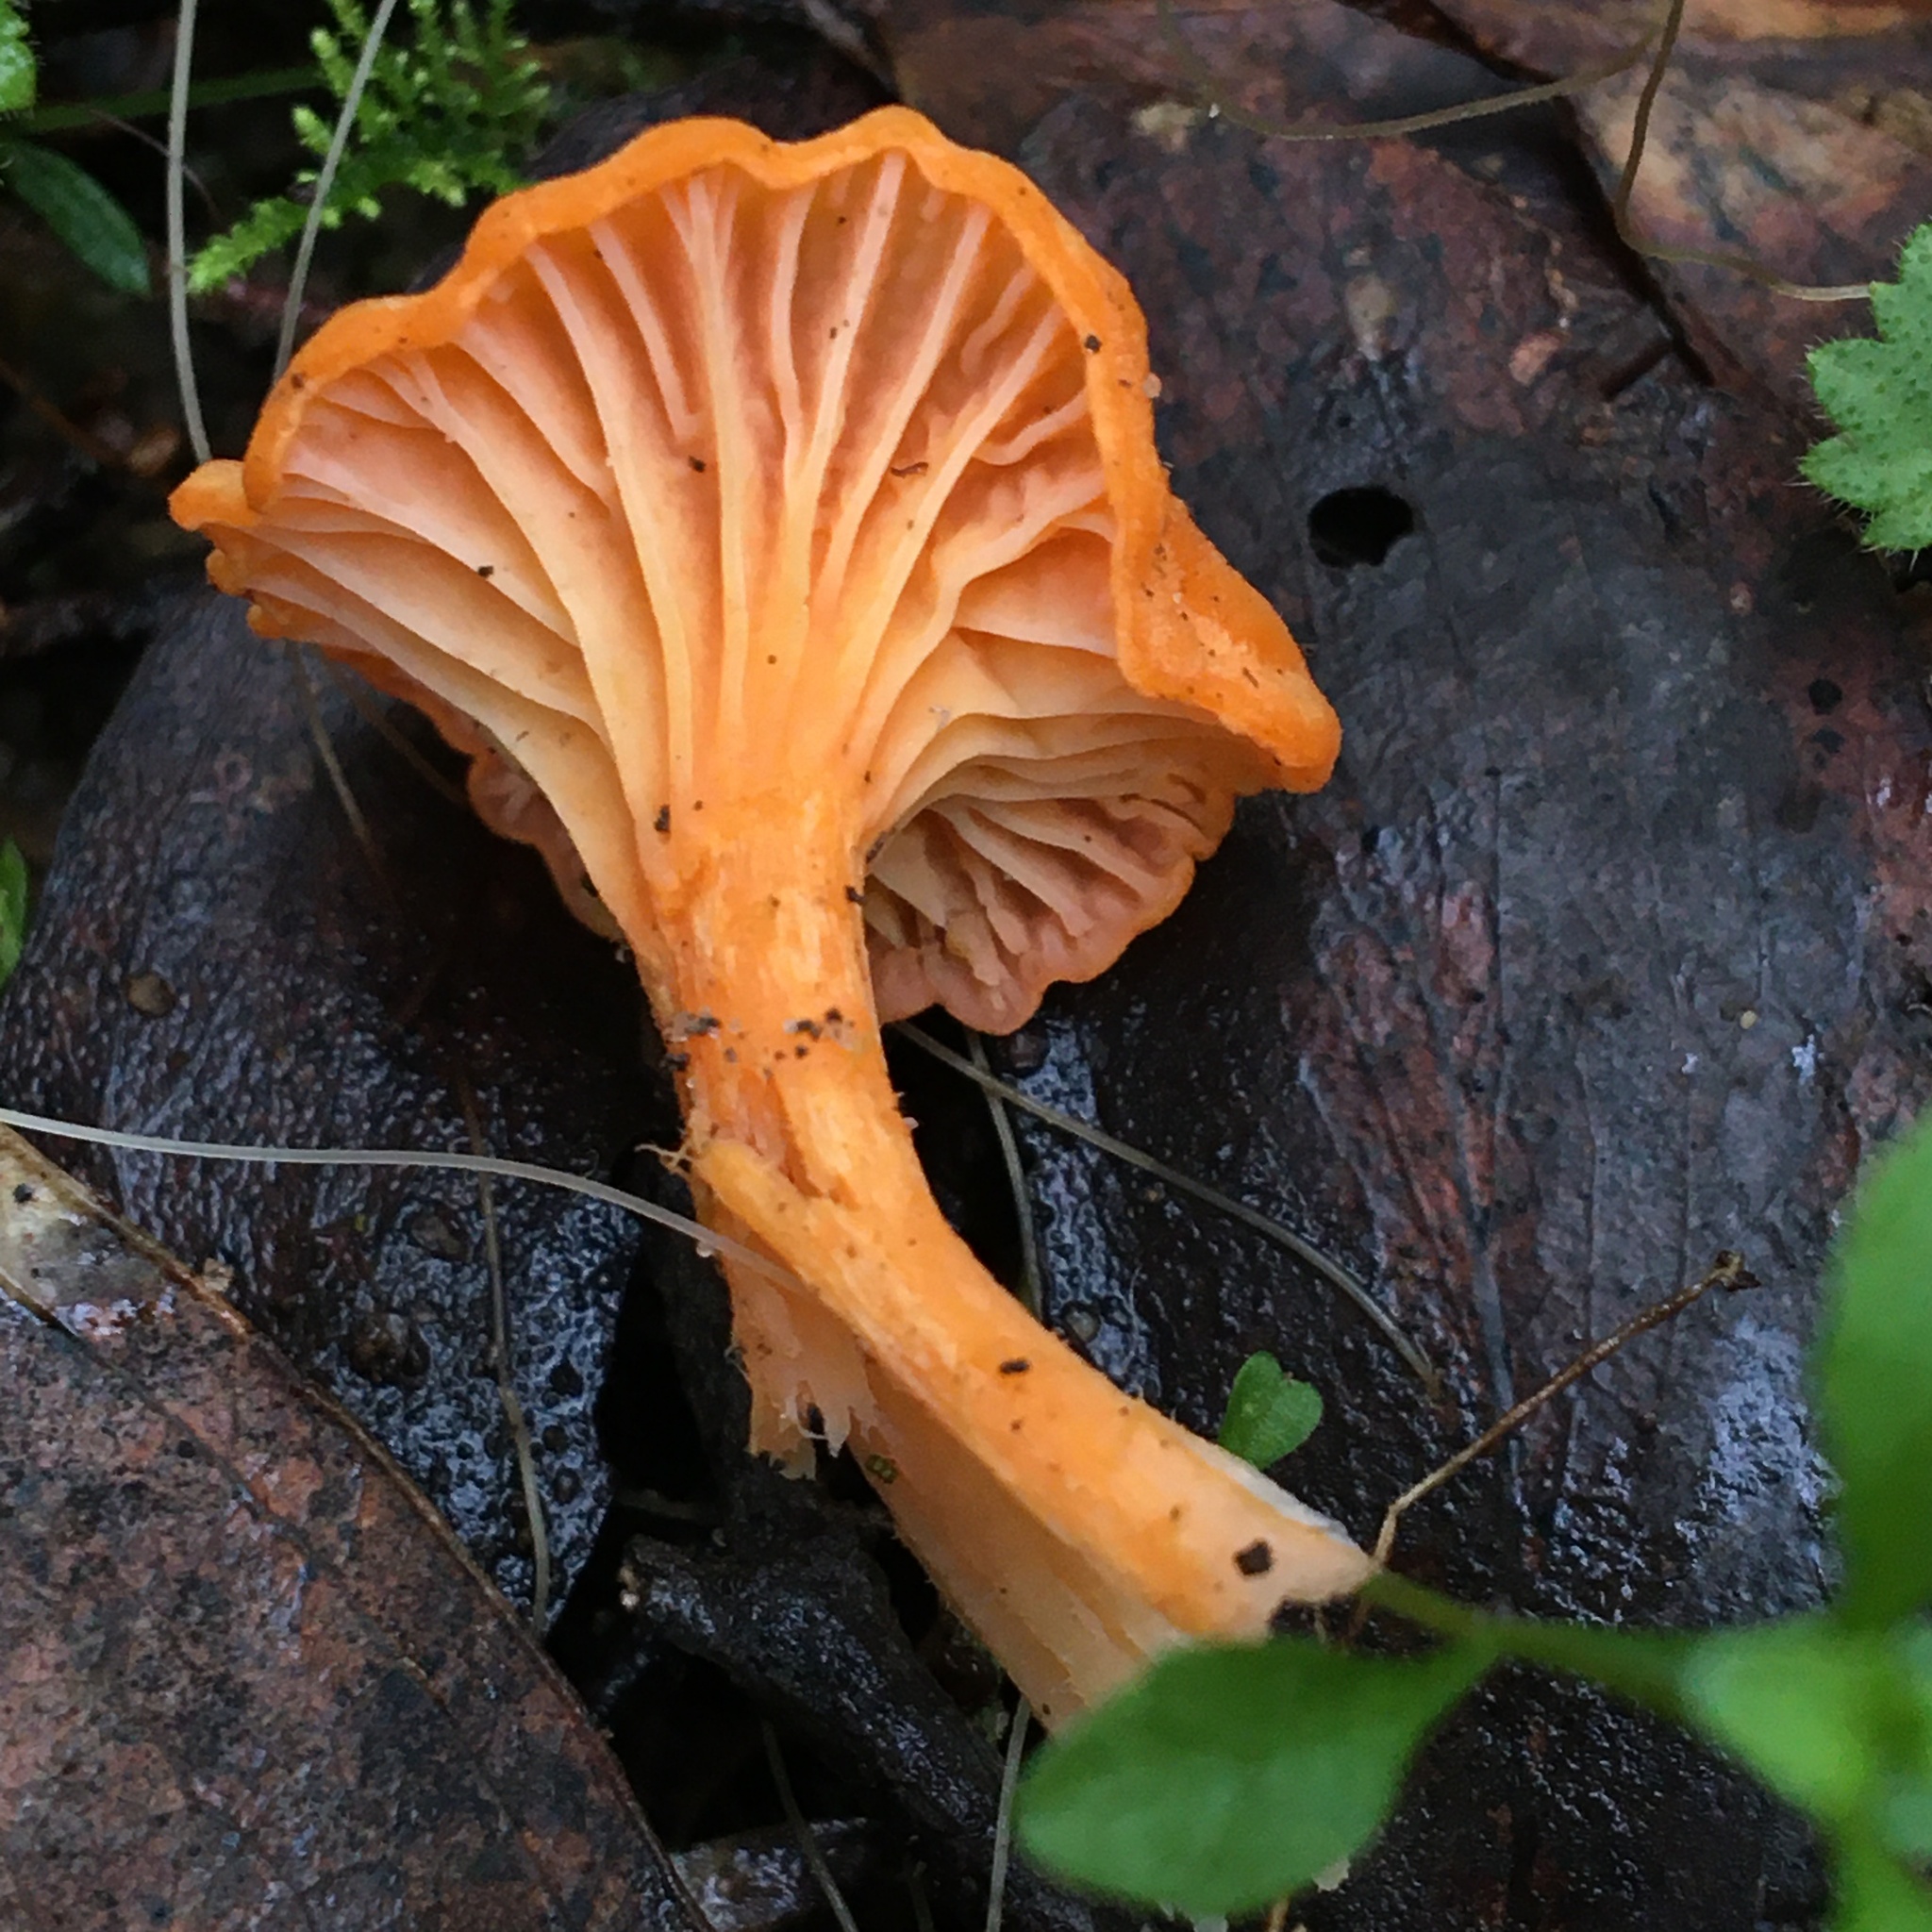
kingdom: Fungi
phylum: Basidiomycota
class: Agaricomycetes
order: Cantharellales
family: Hydnaceae
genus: Cantharellus
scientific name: Cantharellus
